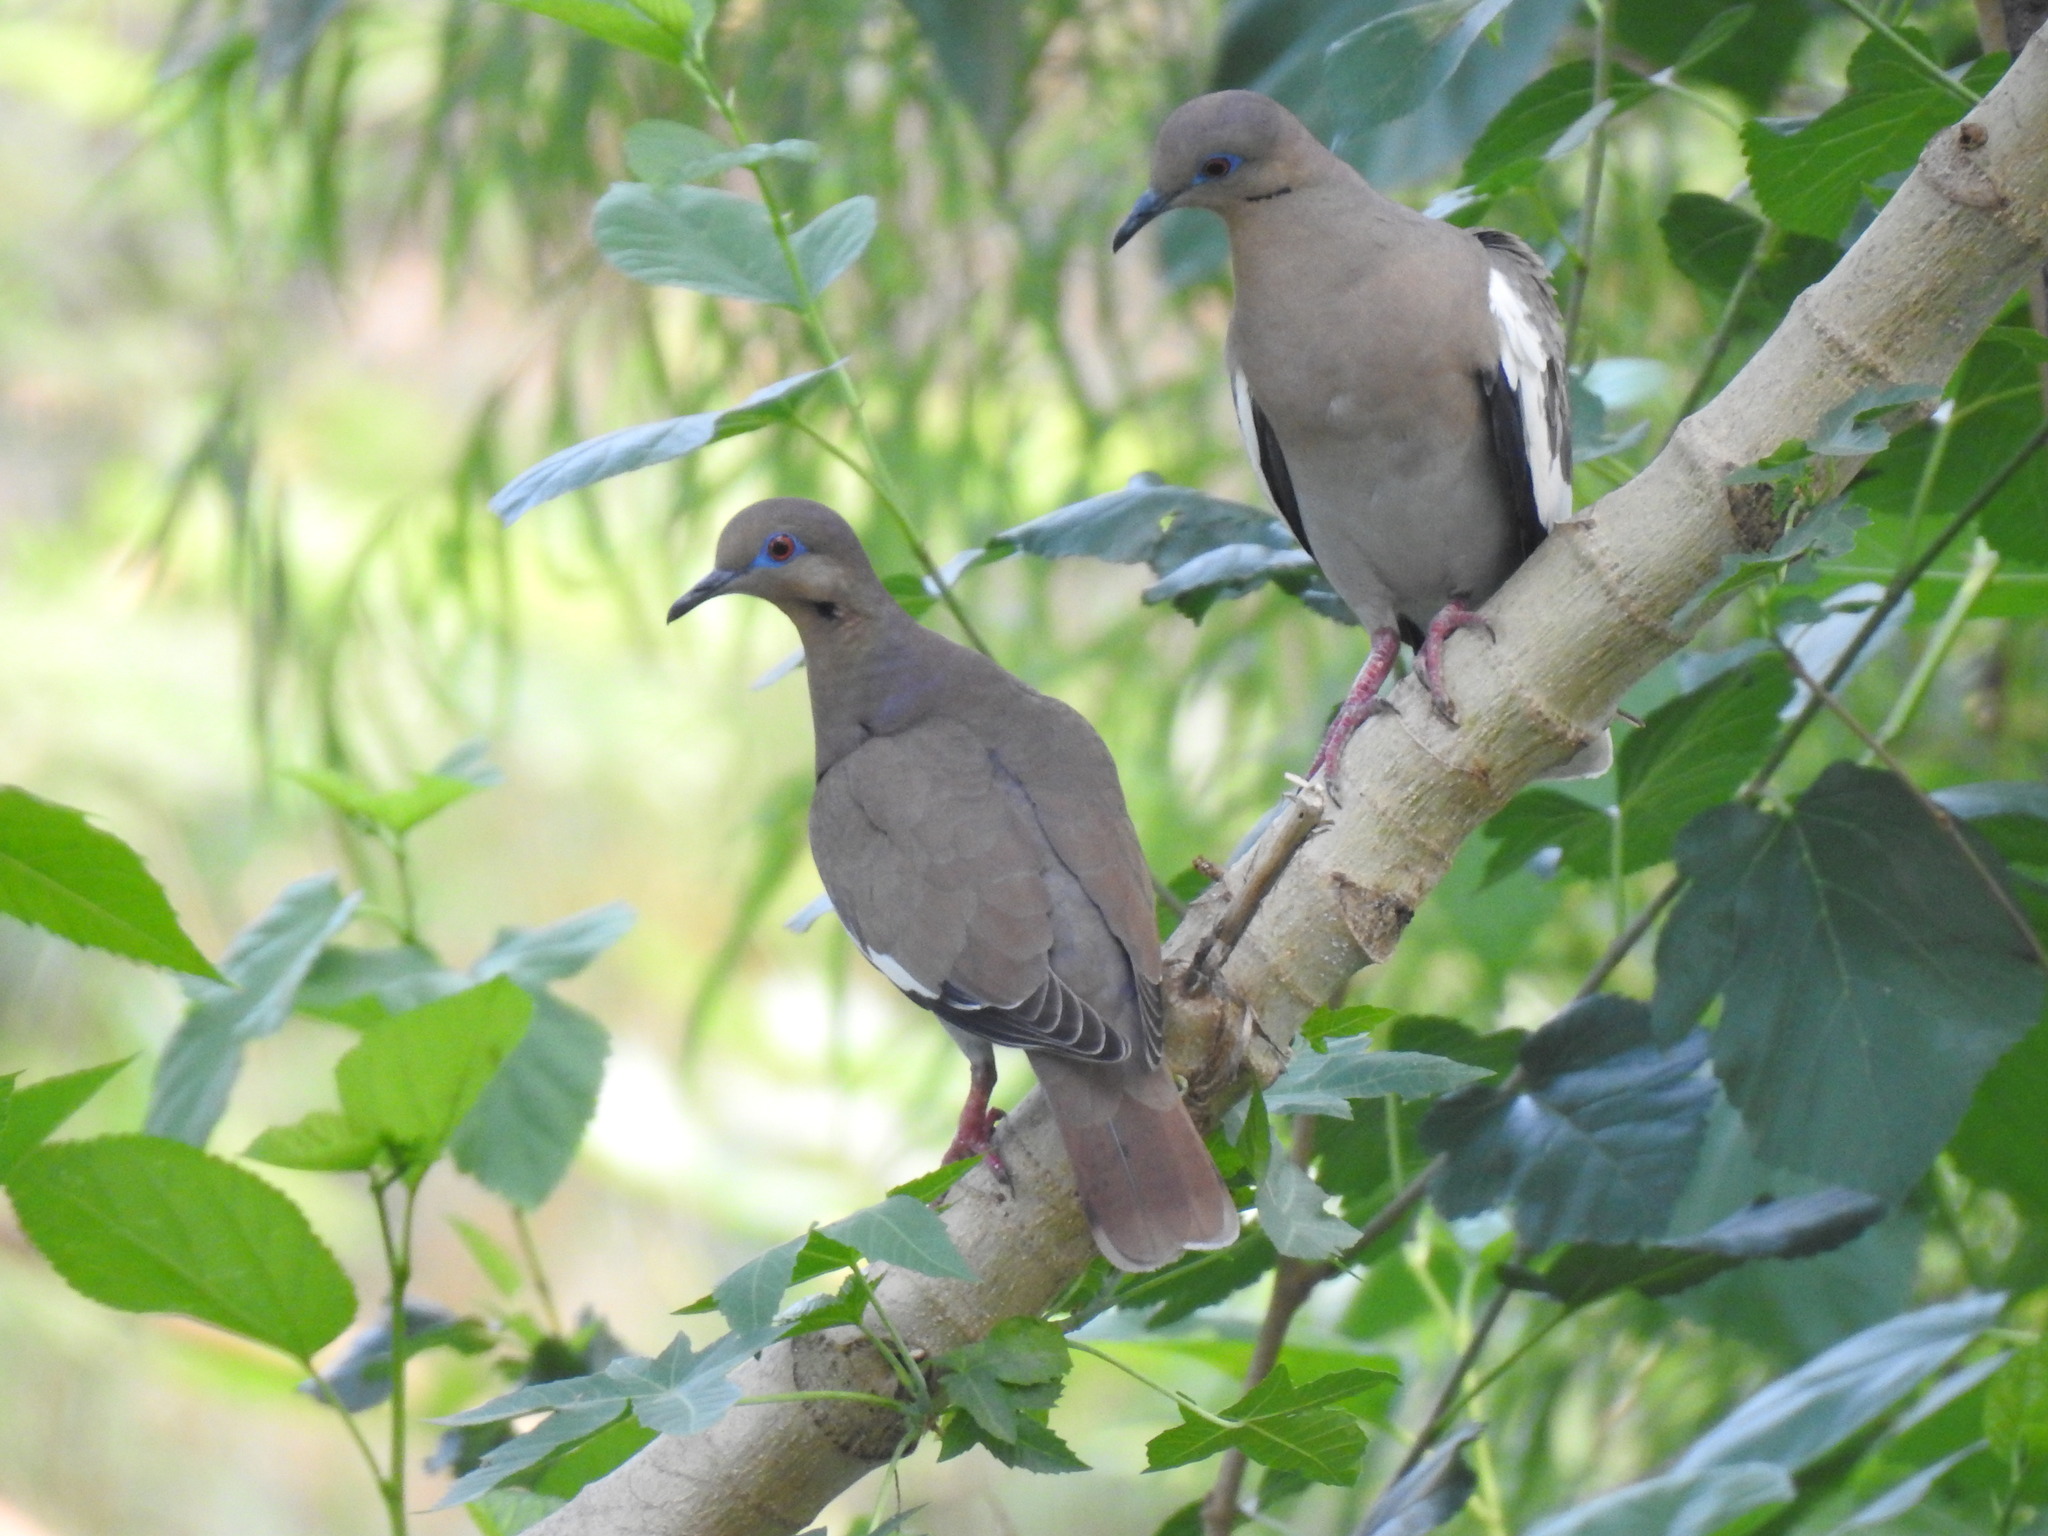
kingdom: Animalia
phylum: Chordata
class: Aves
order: Columbiformes
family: Columbidae
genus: Zenaida
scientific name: Zenaida asiatica
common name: White-winged dove
